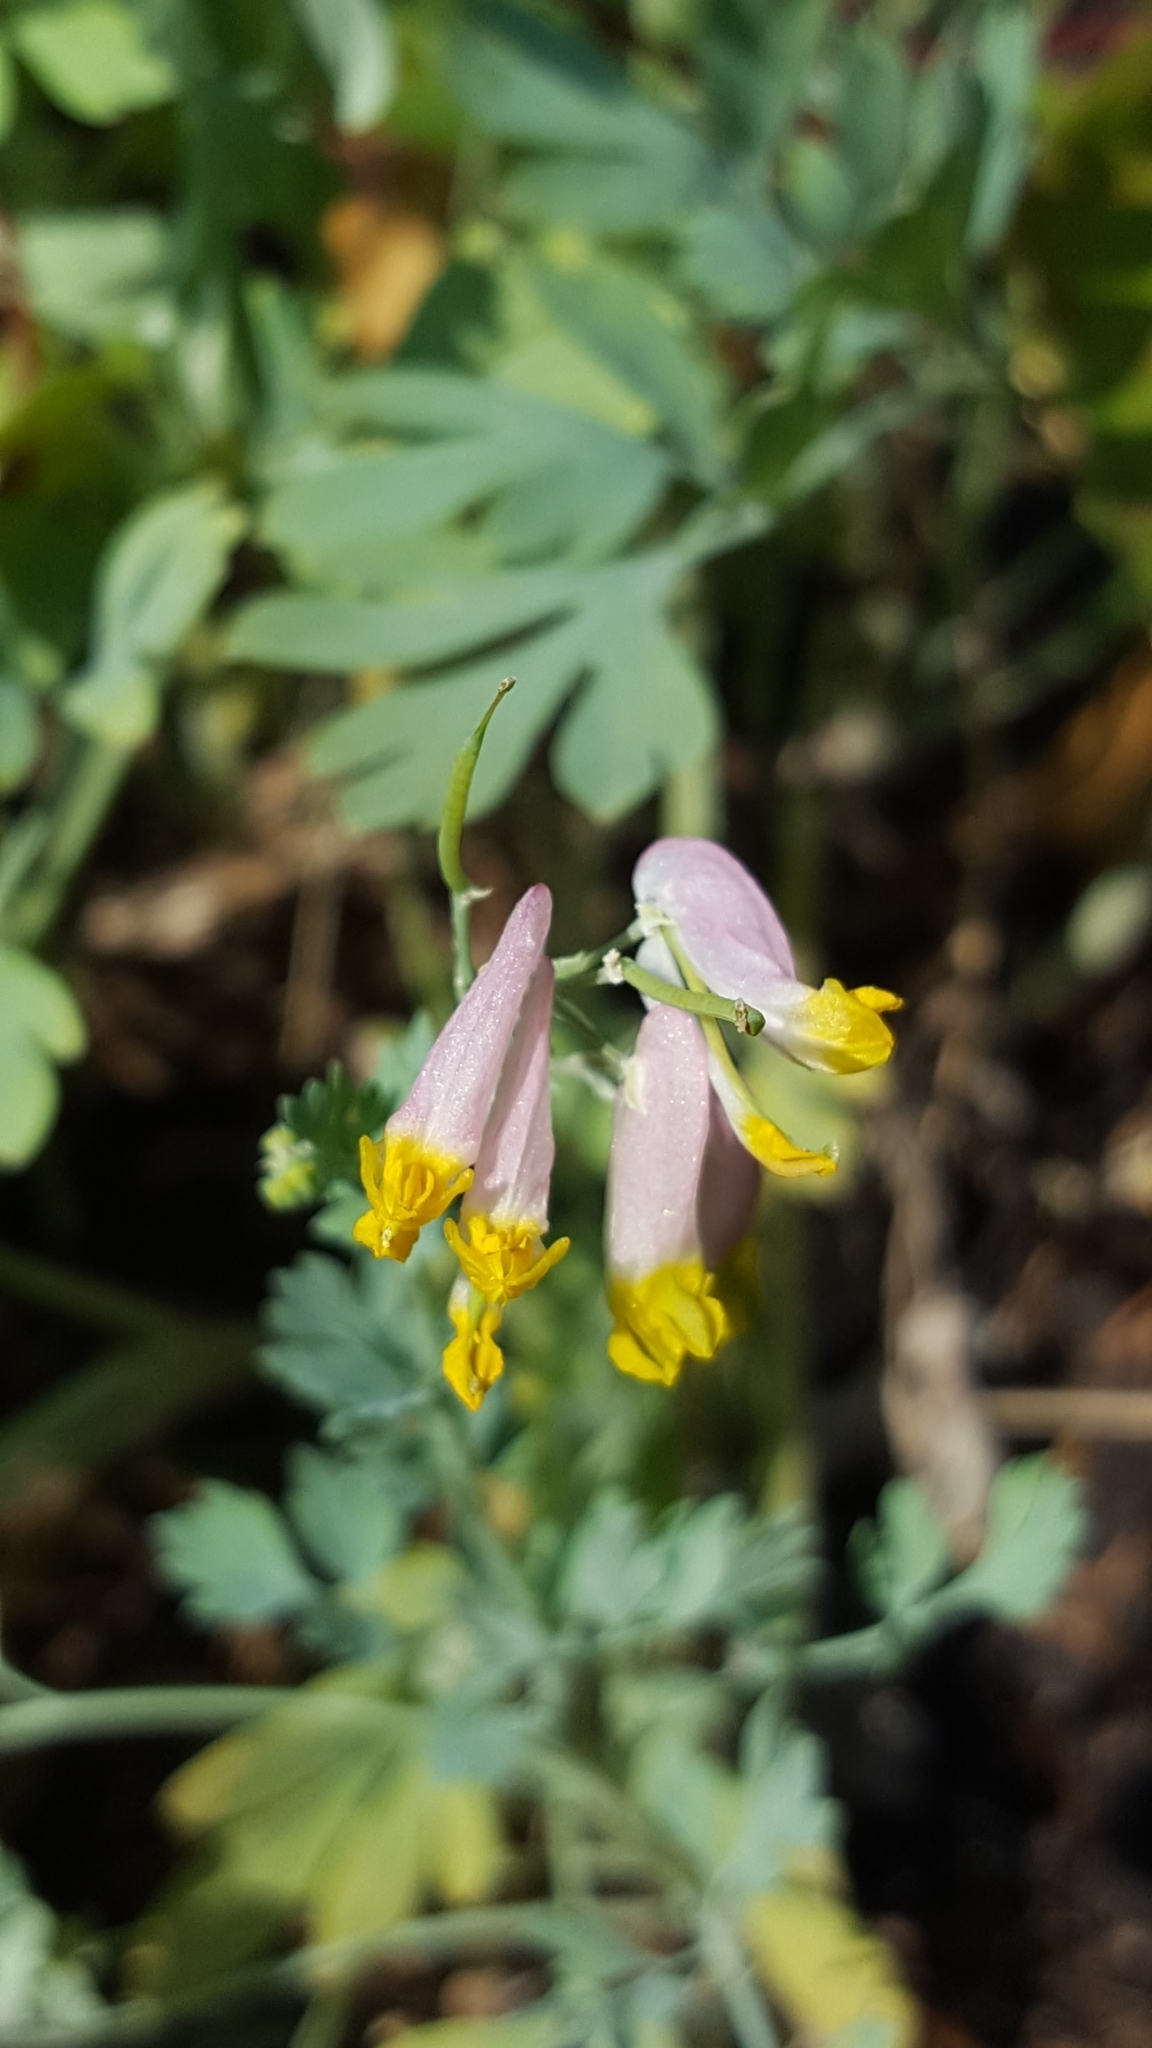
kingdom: Plantae
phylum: Tracheophyta
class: Magnoliopsida
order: Ranunculales
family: Papaveraceae
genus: Capnoides
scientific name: Capnoides sempervirens
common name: Rock harlequin
